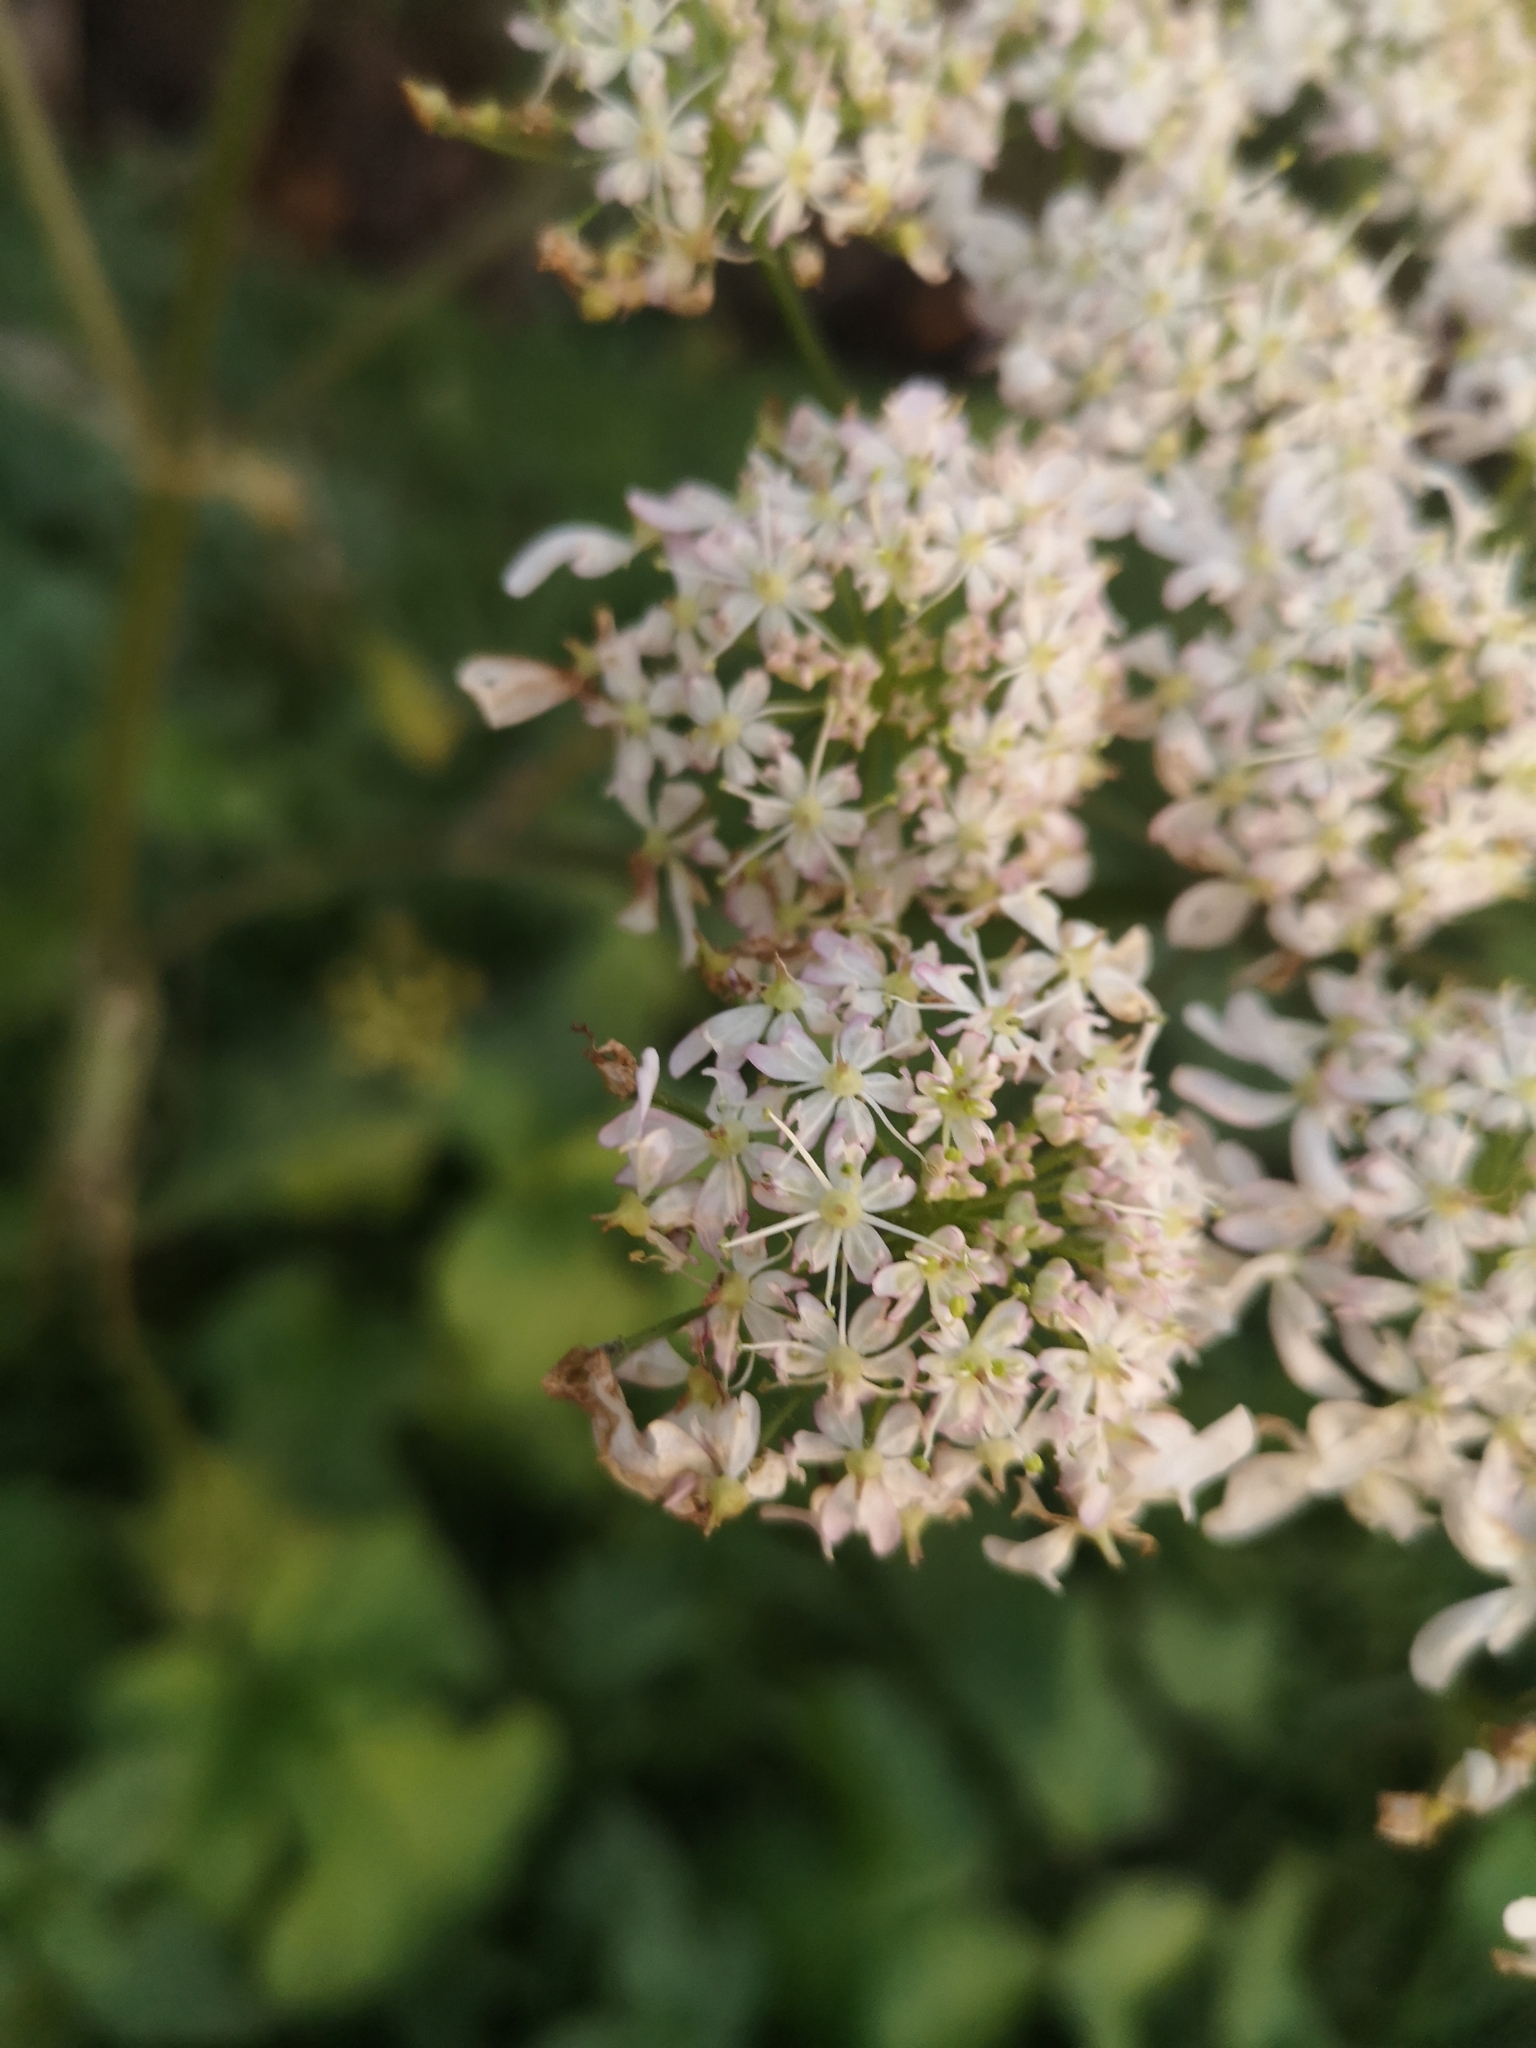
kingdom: Plantae
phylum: Tracheophyta
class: Magnoliopsida
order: Apiales
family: Apiaceae
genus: Heracleum
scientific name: Heracleum sphondylium
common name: Hogweed
